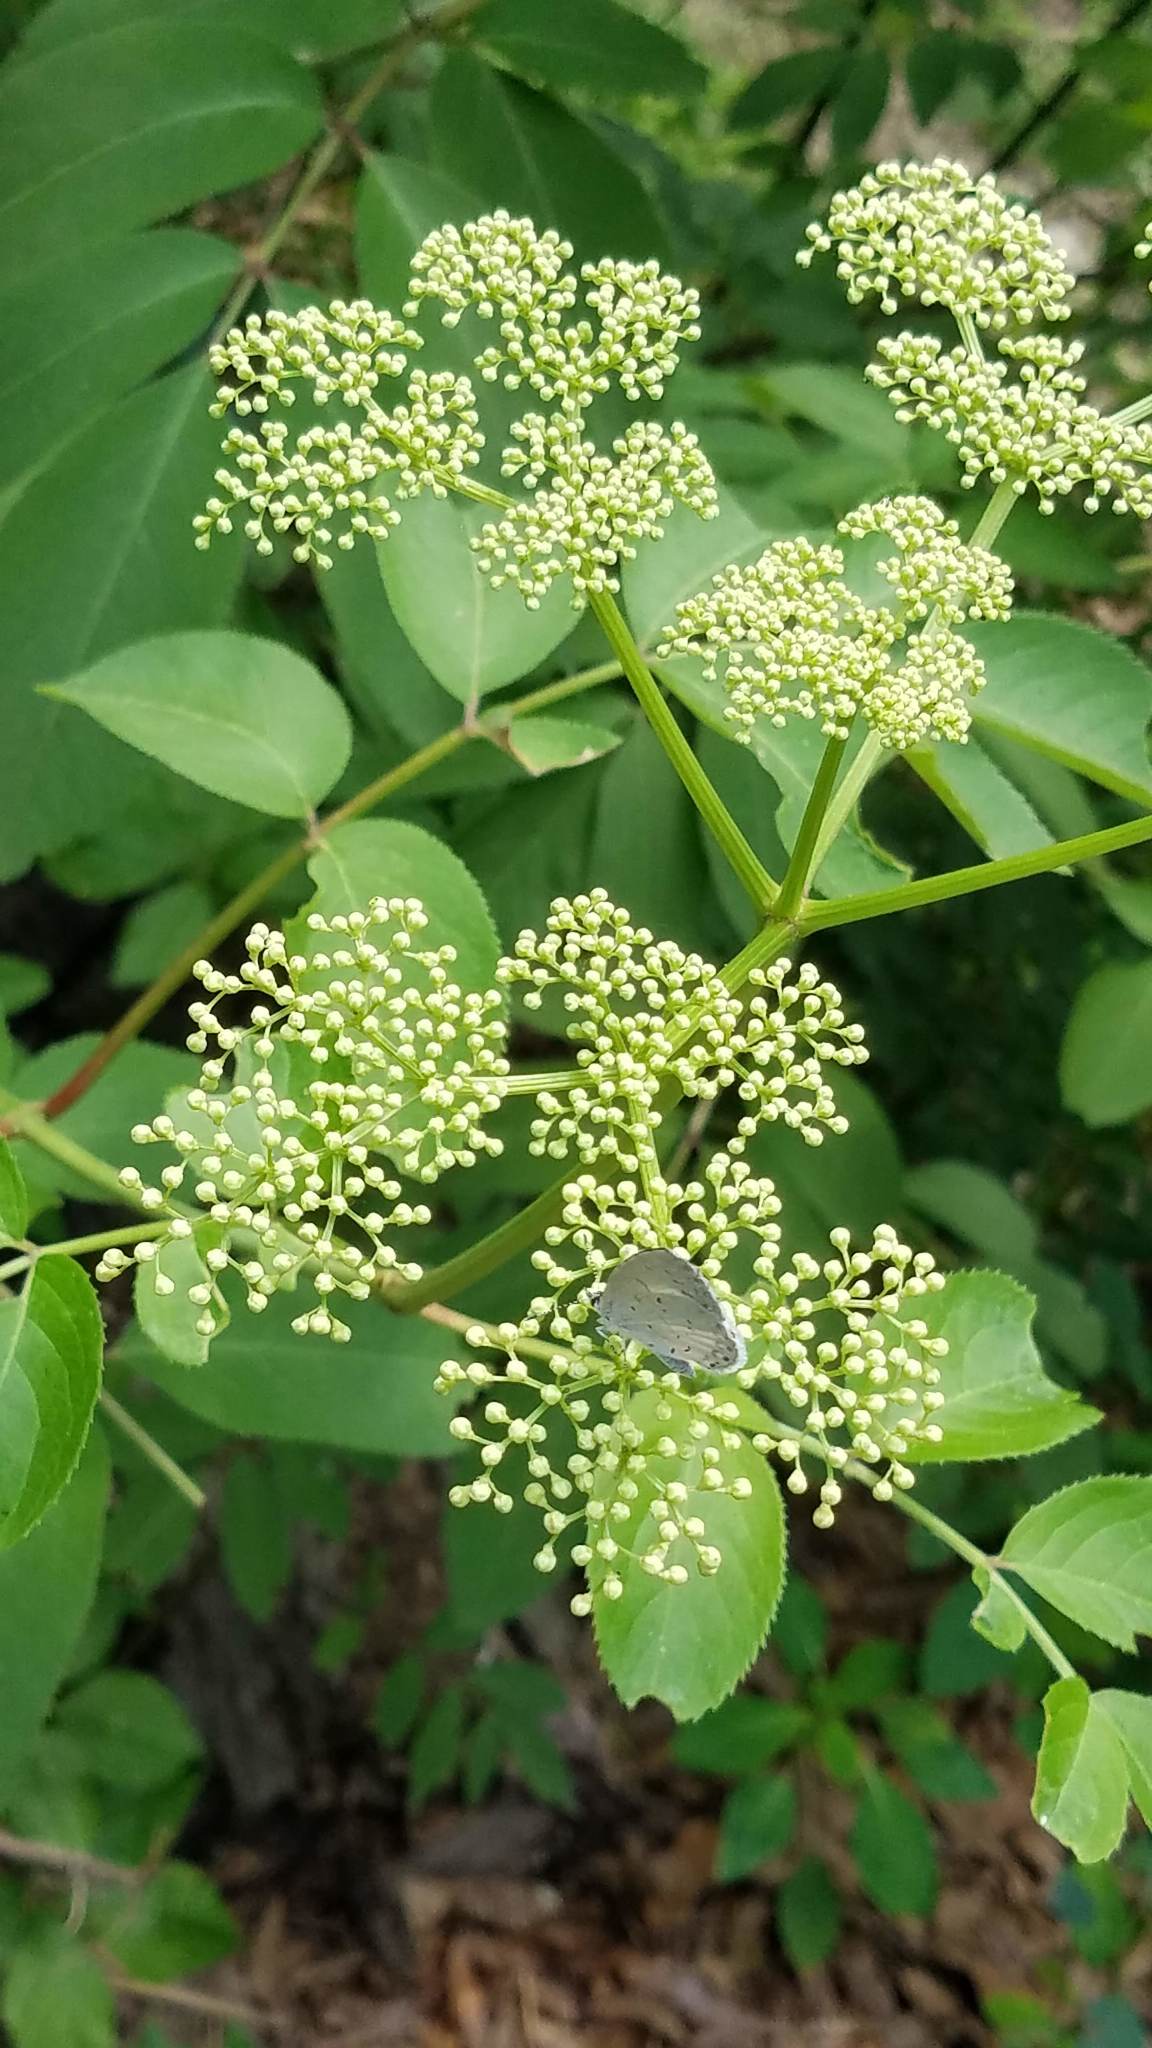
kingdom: Plantae
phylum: Tracheophyta
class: Magnoliopsida
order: Dipsacales
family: Viburnaceae
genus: Sambucus
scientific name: Sambucus canadensis
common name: American elder
